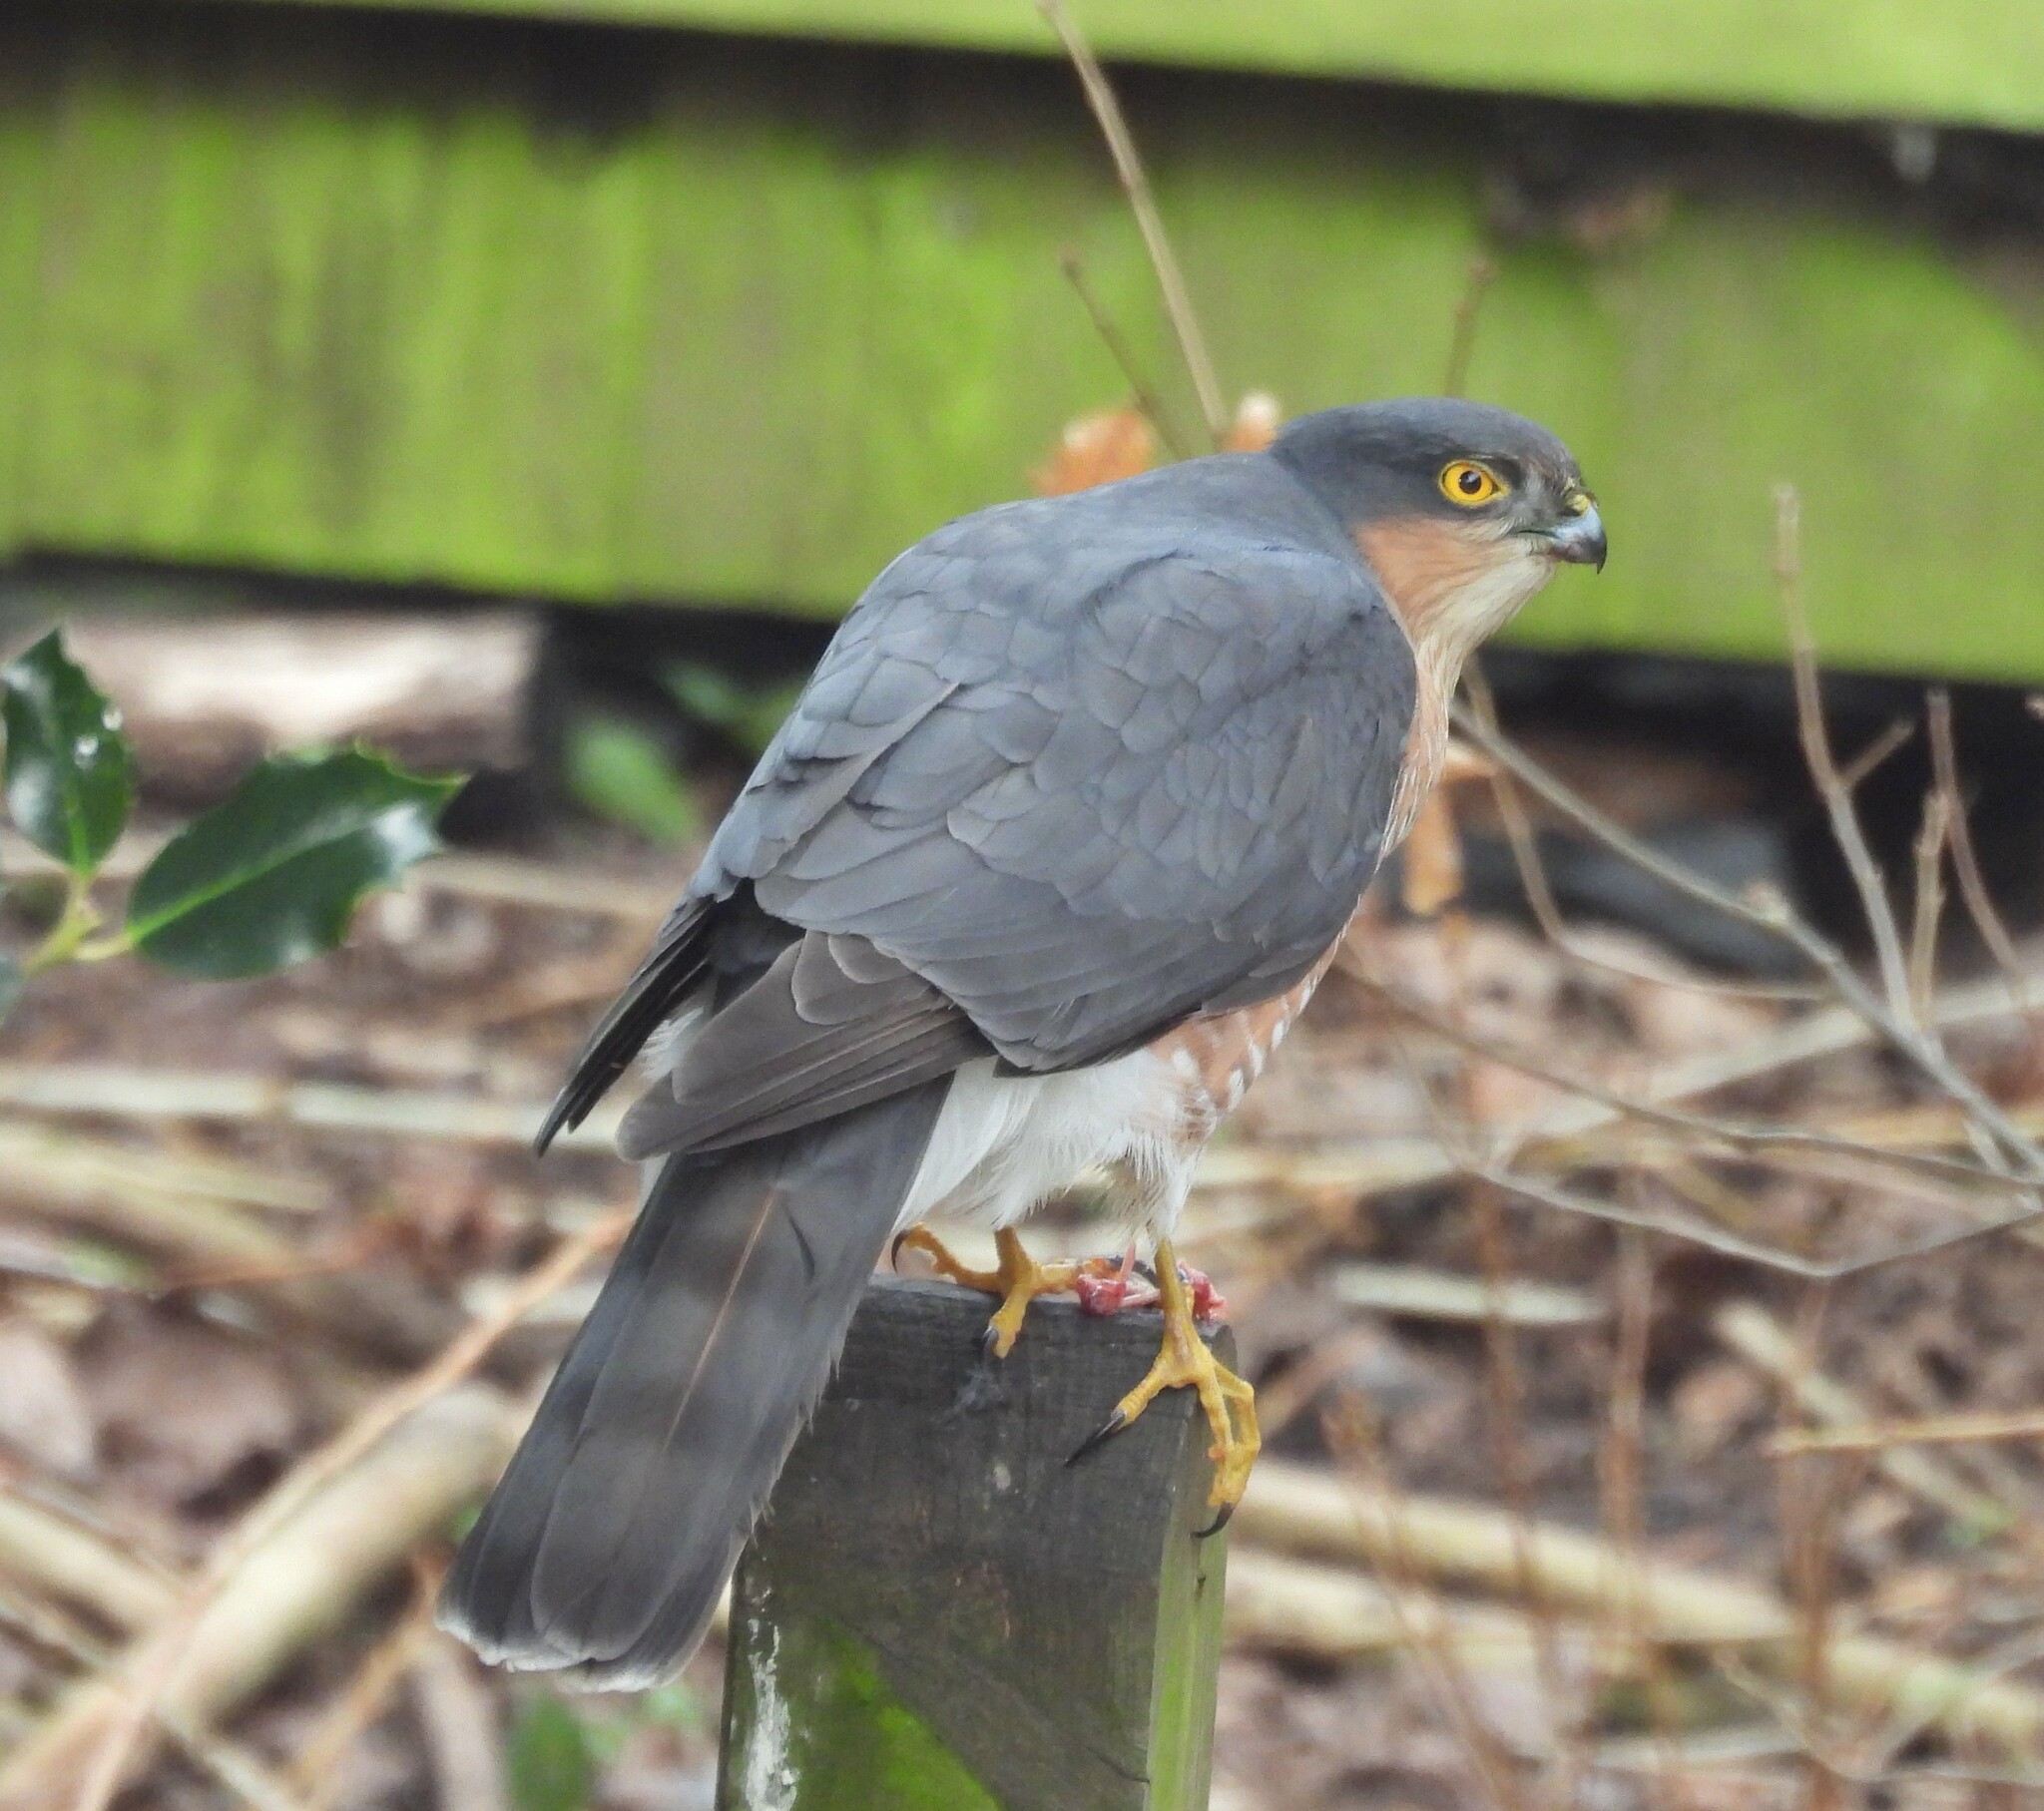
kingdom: Animalia
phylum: Chordata
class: Aves
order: Accipitriformes
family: Accipitridae
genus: Accipiter
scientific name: Accipiter nisus
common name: Eurasian sparrowhawk
